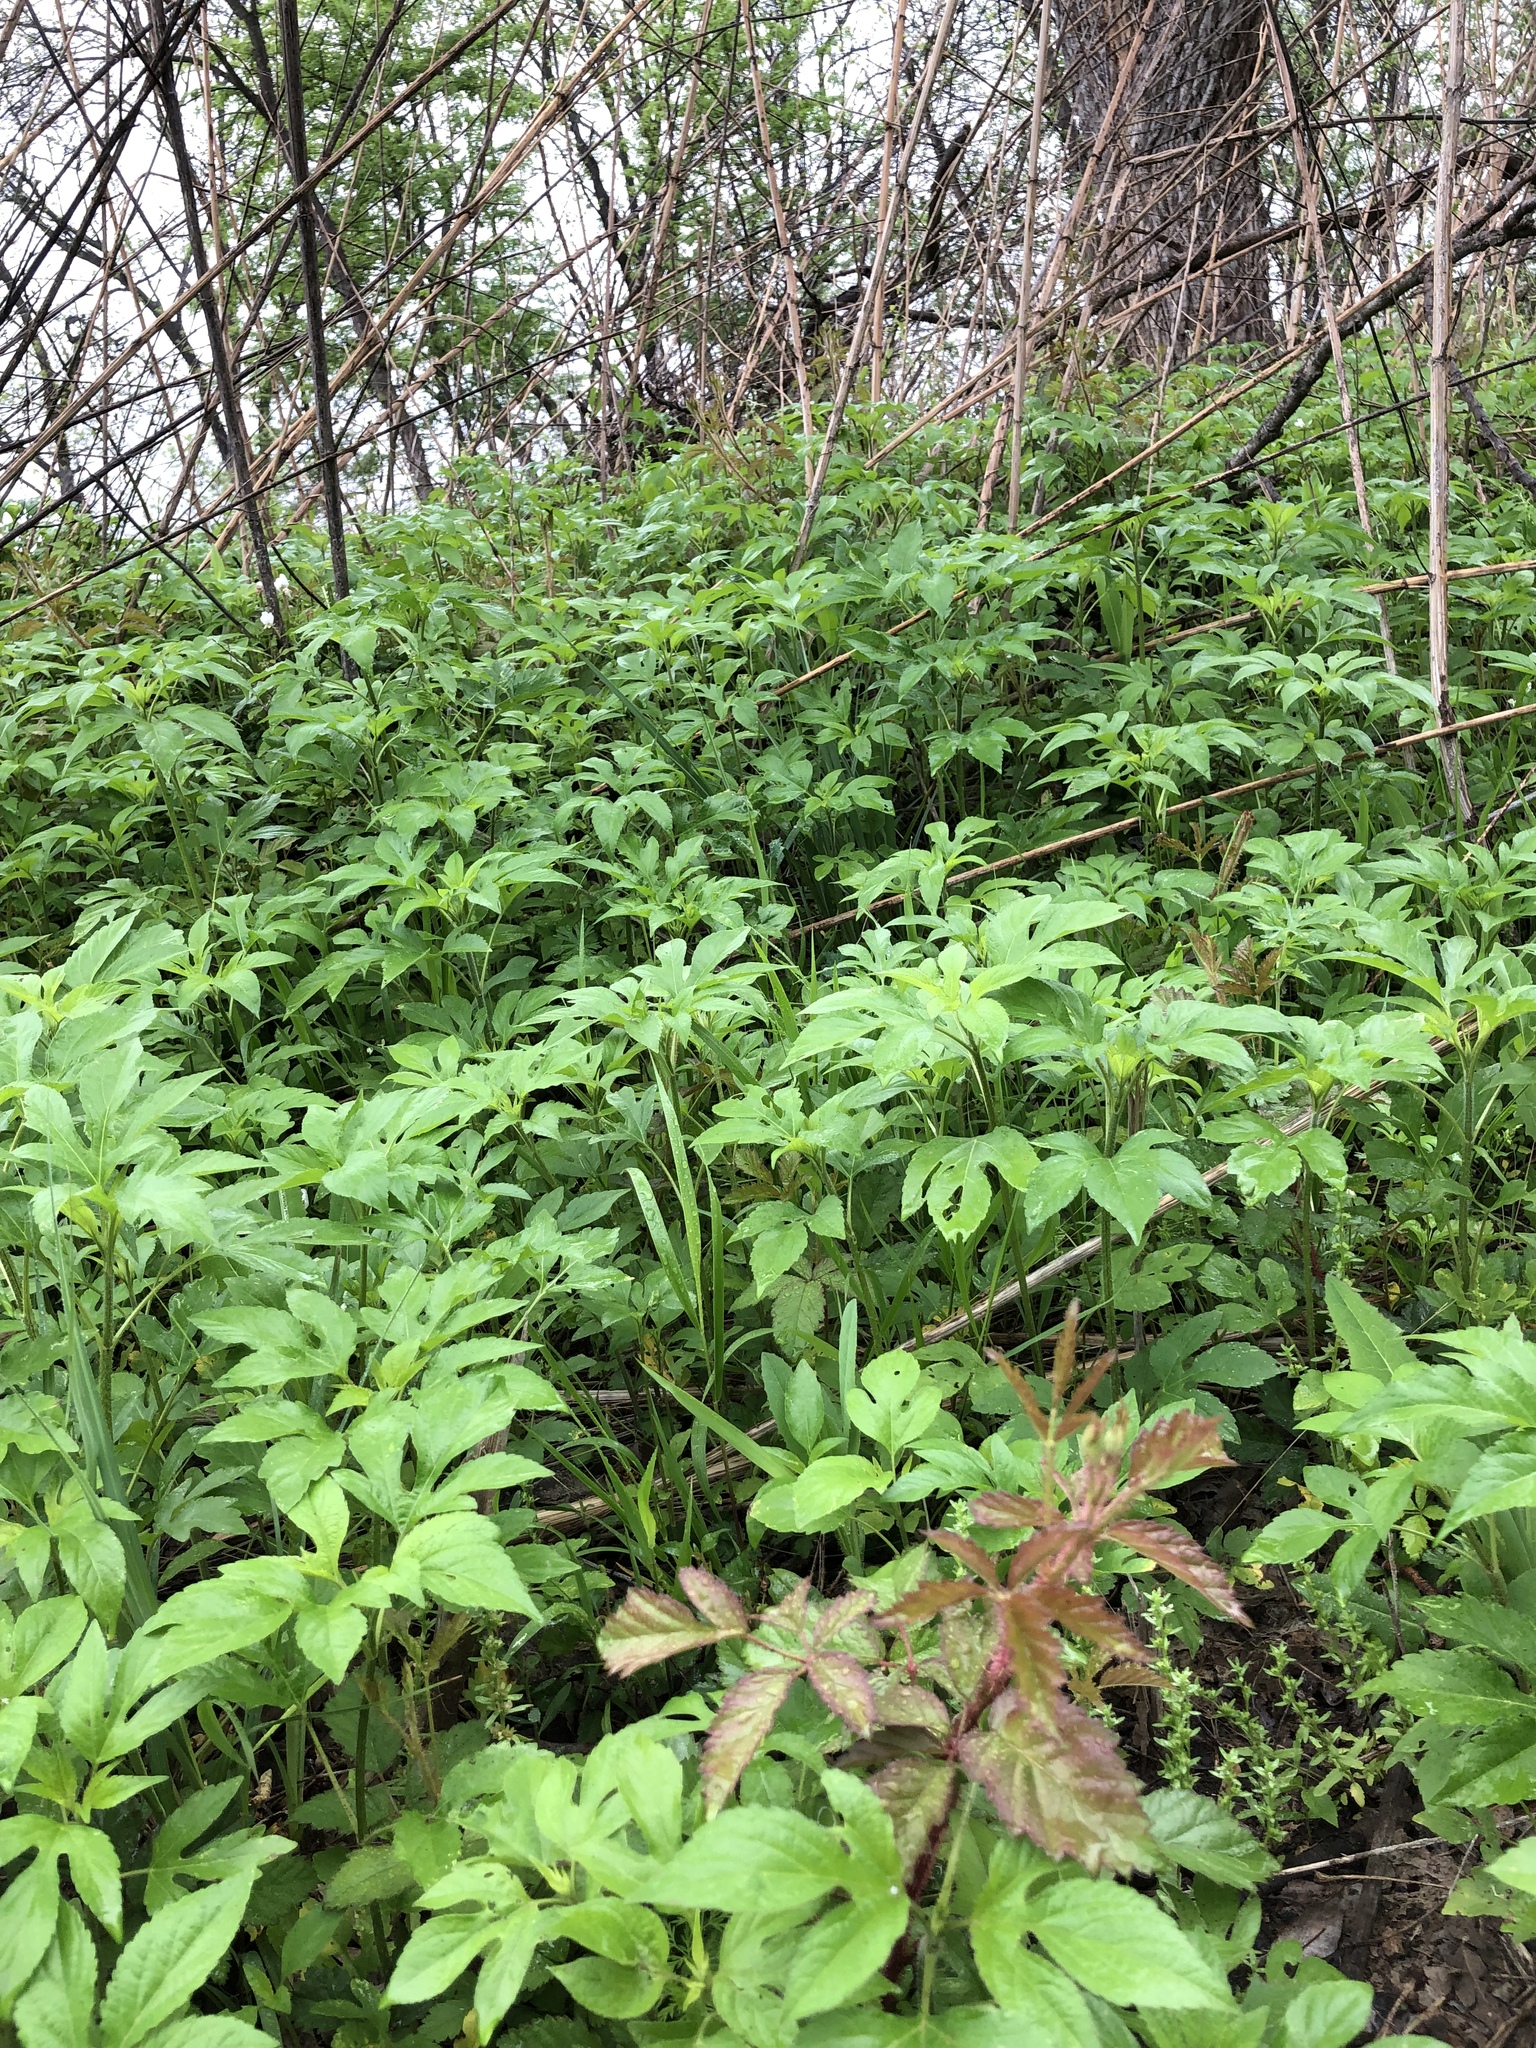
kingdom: Plantae
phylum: Tracheophyta
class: Magnoliopsida
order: Asterales
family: Asteraceae
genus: Ambrosia
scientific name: Ambrosia trifida
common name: Giant ragweed
